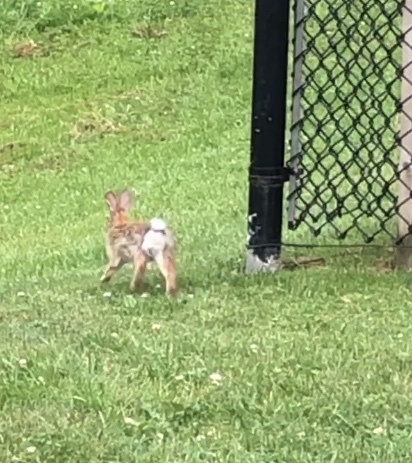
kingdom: Animalia
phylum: Chordata
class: Mammalia
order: Lagomorpha
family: Leporidae
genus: Sylvilagus
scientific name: Sylvilagus floridanus
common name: Eastern cottontail
